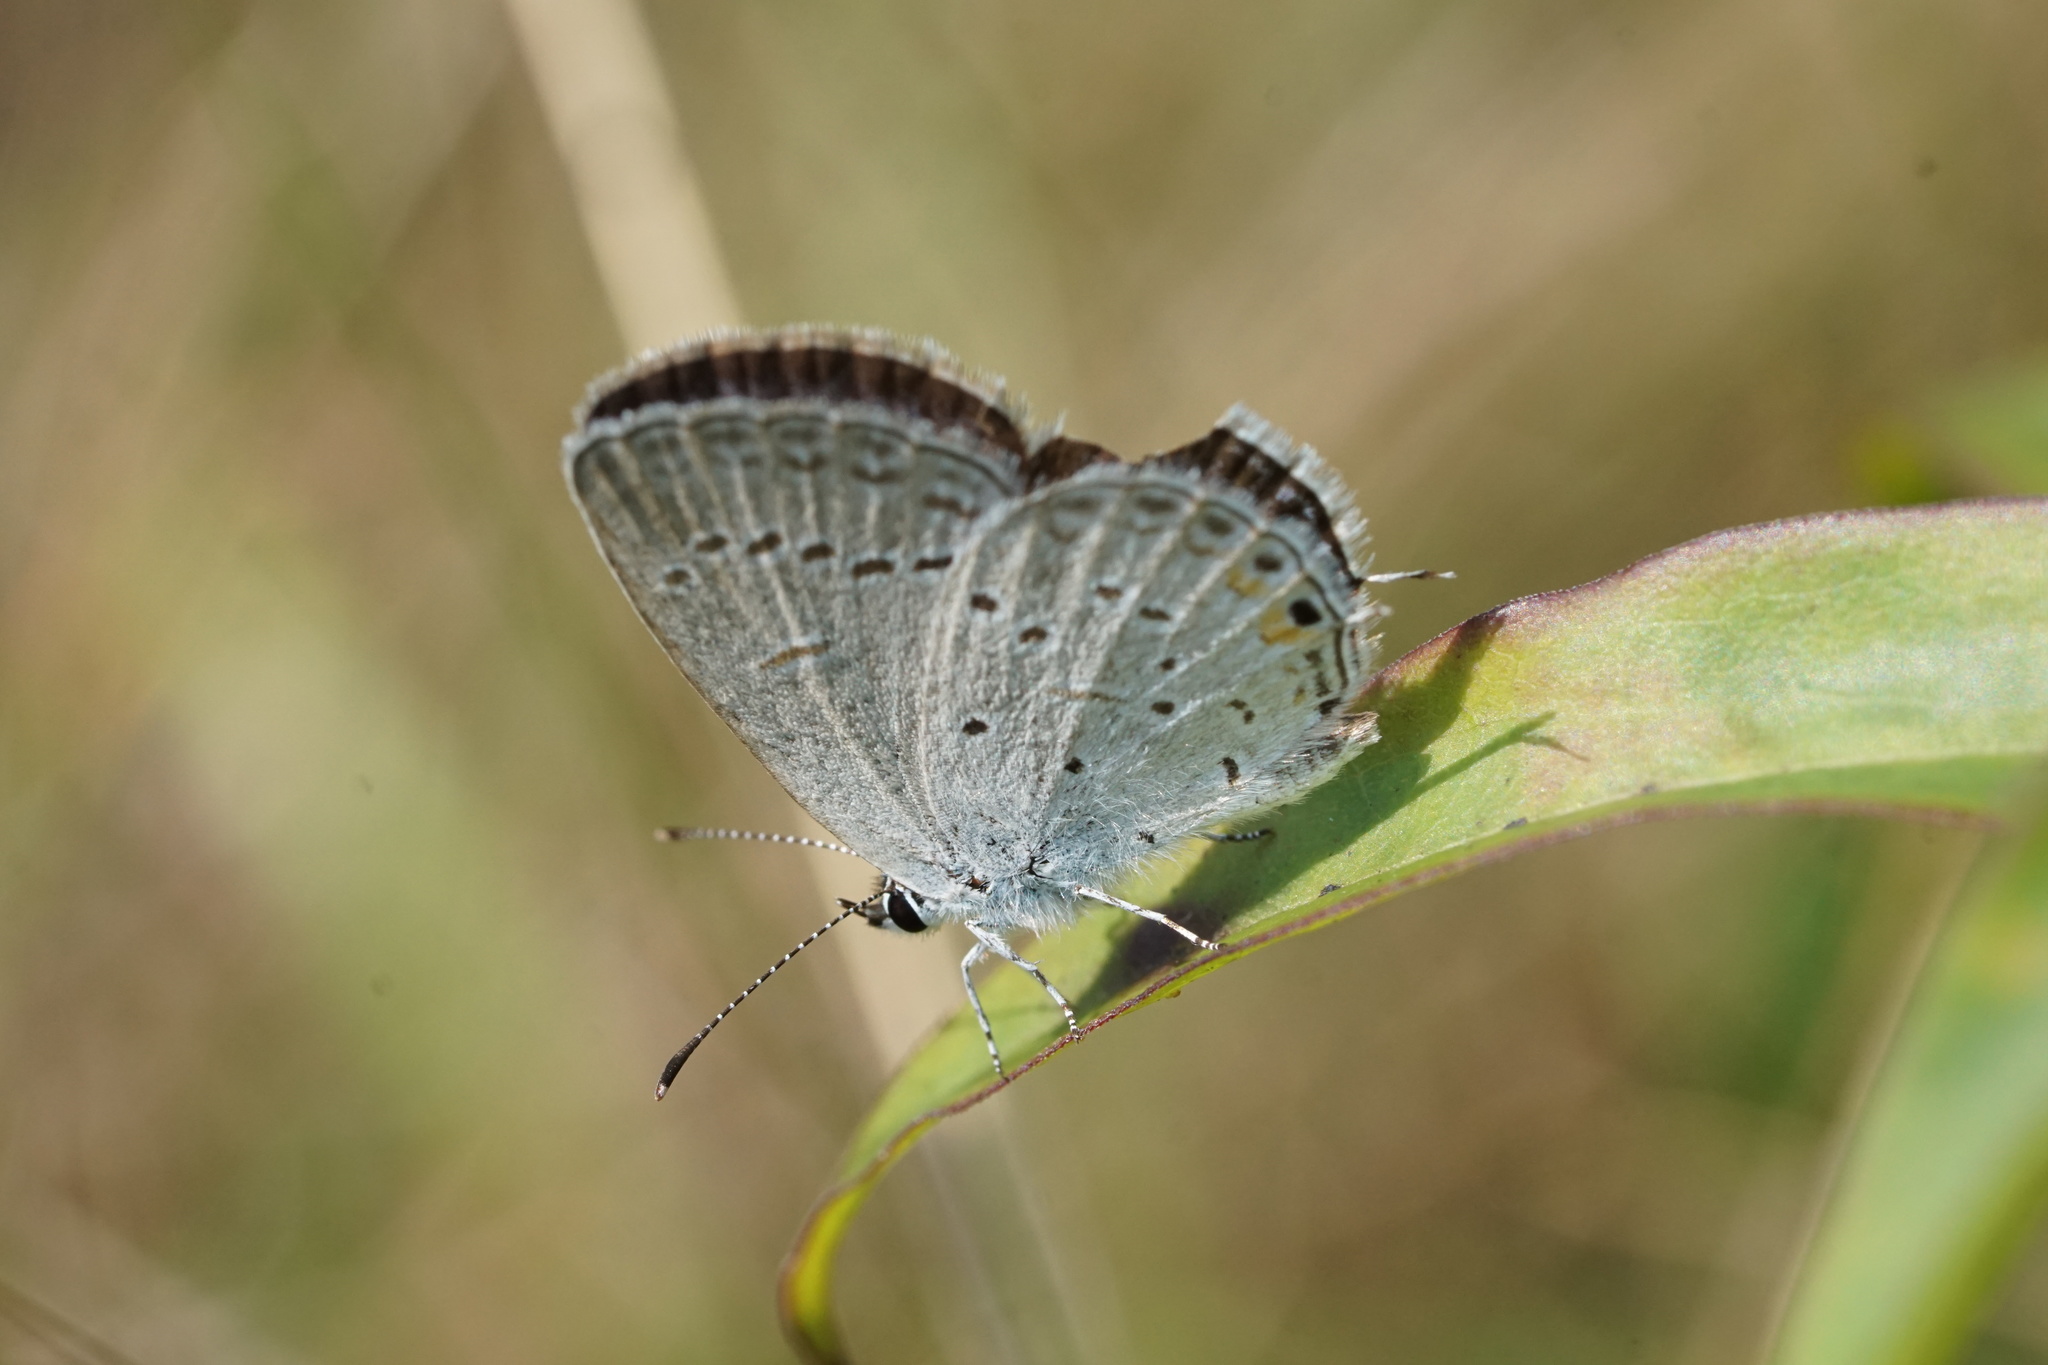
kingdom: Animalia
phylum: Arthropoda
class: Insecta
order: Lepidoptera
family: Lycaenidae
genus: Elkalyce
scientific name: Elkalyce comyntas
